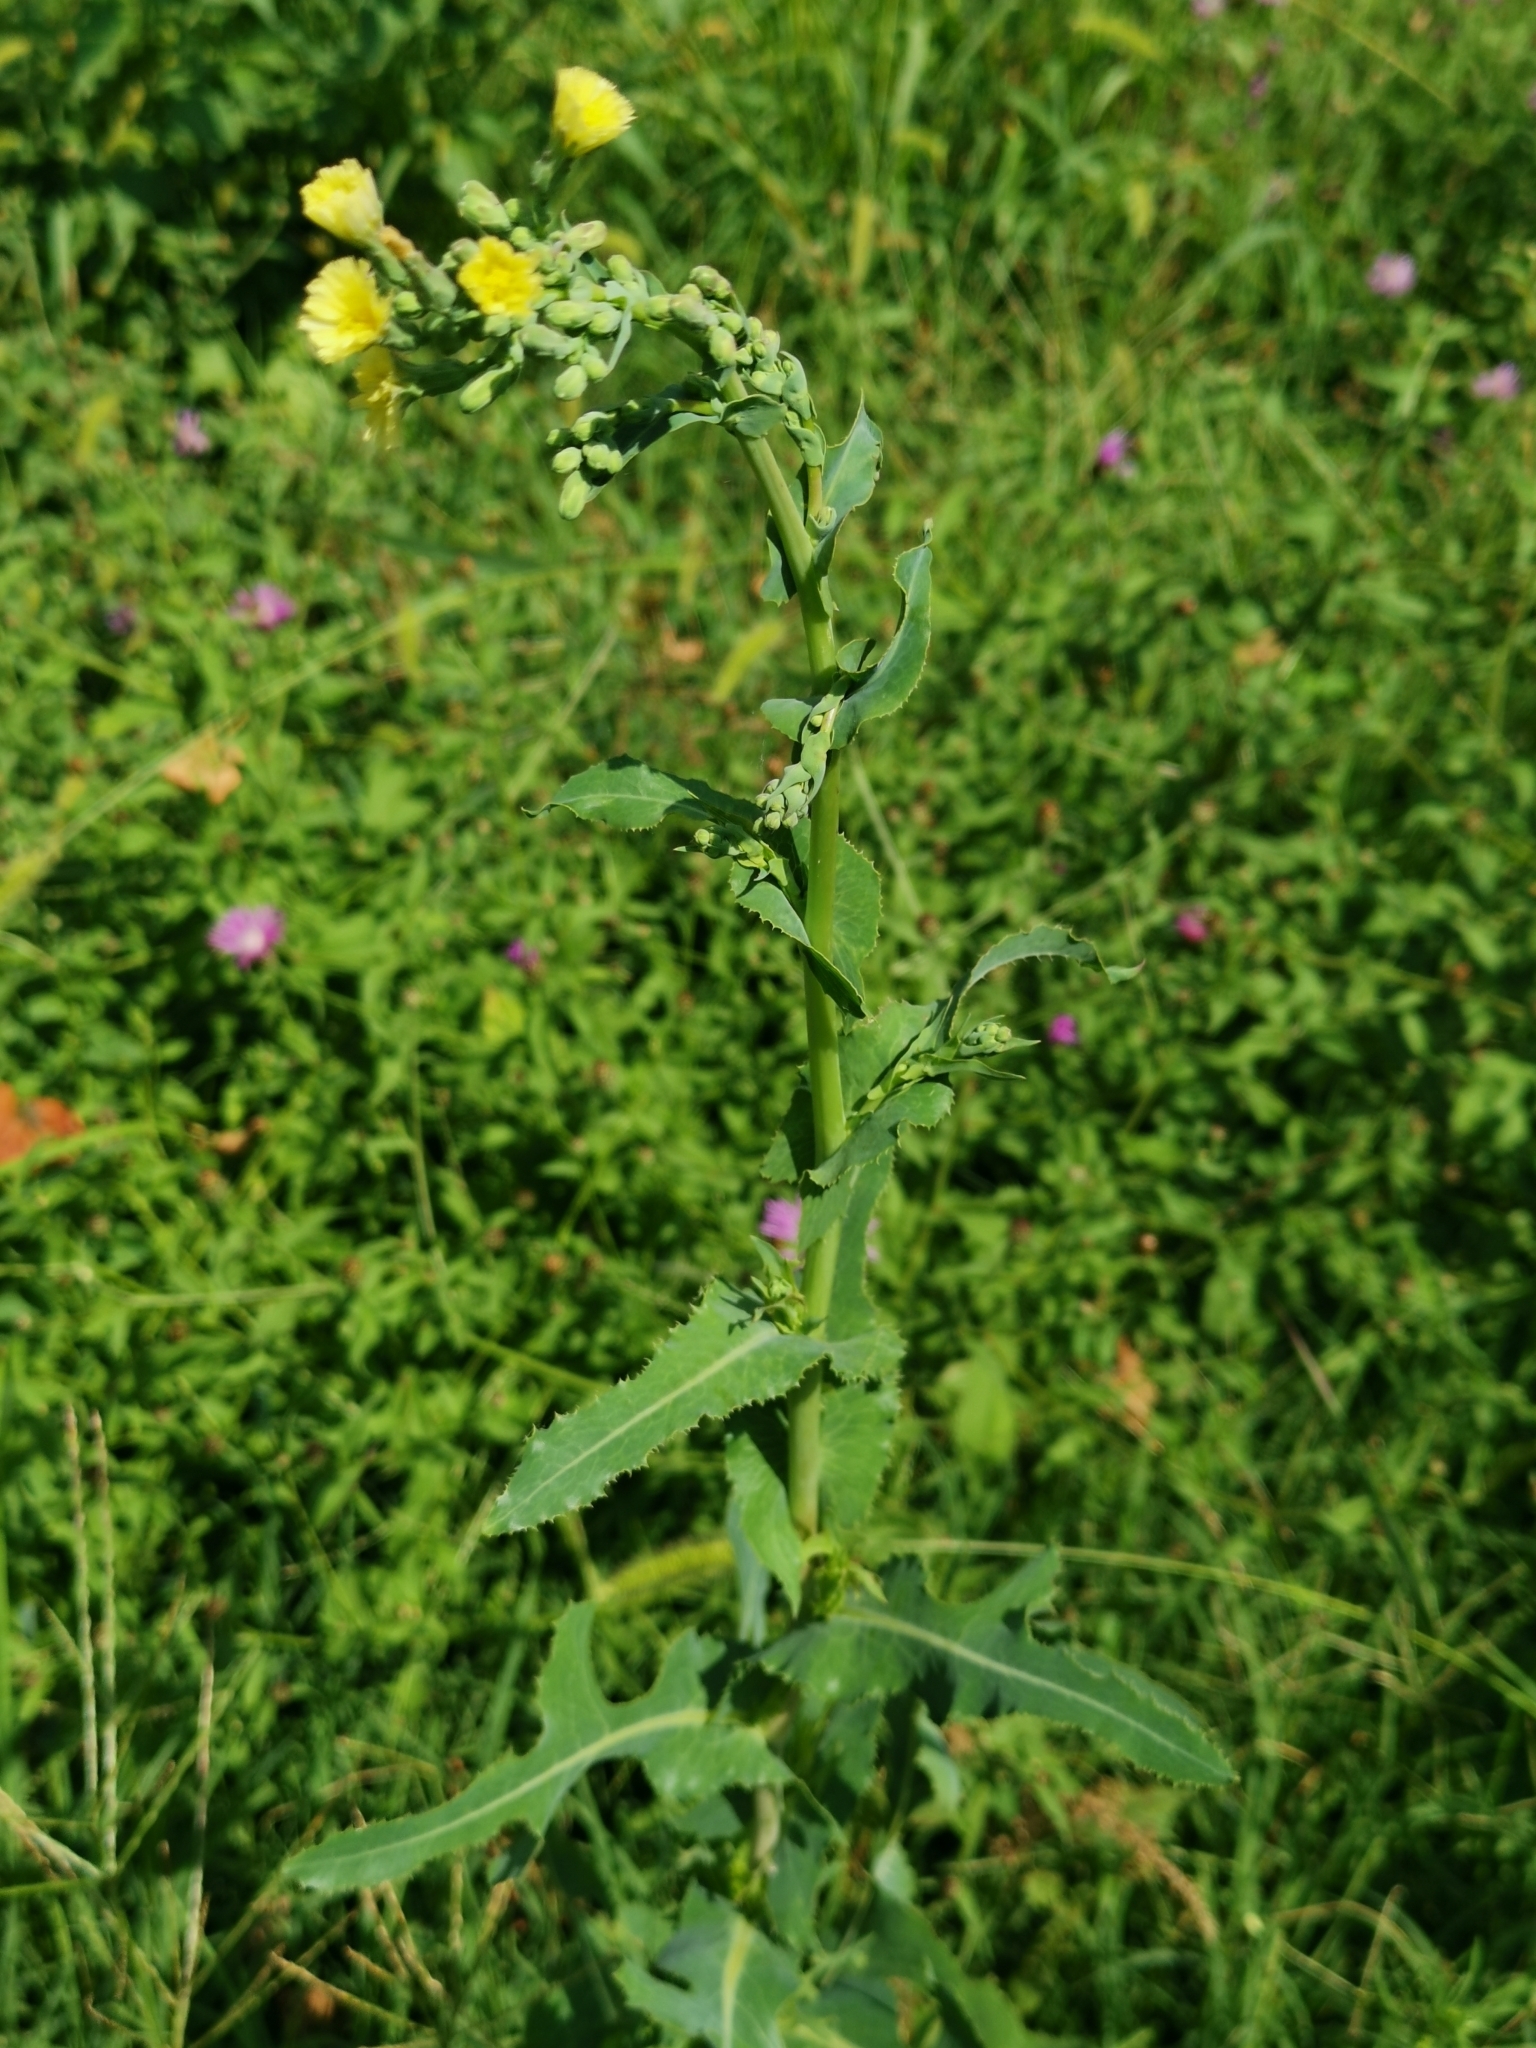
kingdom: Plantae
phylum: Tracheophyta
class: Magnoliopsida
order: Asterales
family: Asteraceae
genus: Lactuca
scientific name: Lactuca serriola
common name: Prickly lettuce
